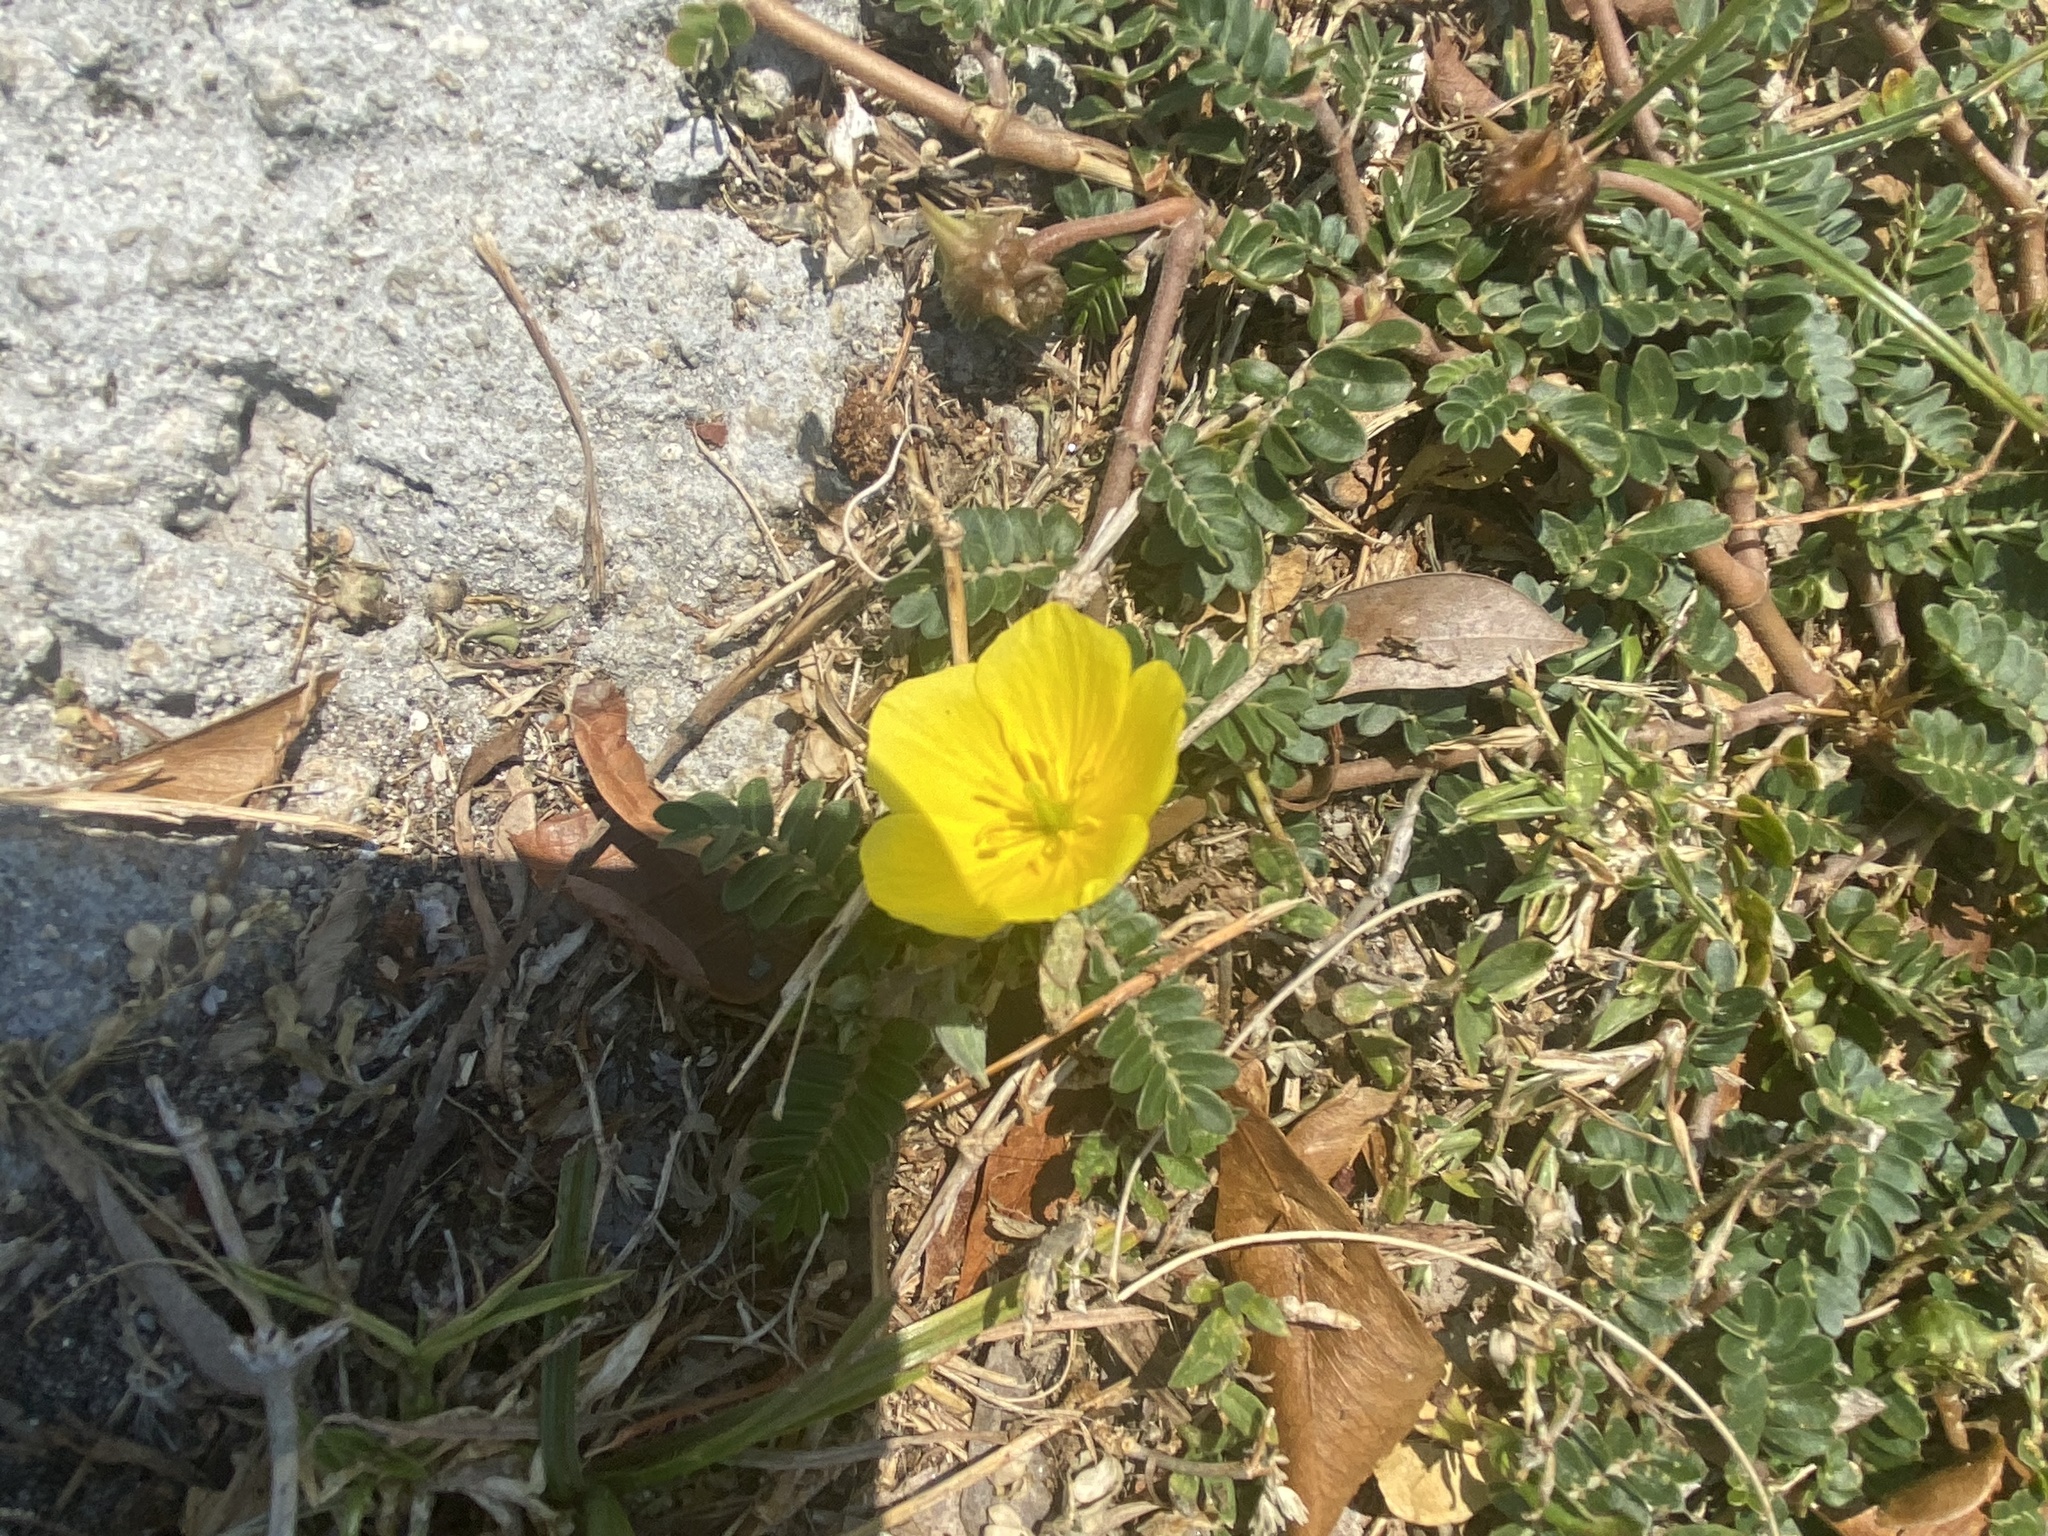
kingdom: Plantae
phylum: Tracheophyta
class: Magnoliopsida
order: Zygophyllales
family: Zygophyllaceae
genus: Tribulus
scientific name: Tribulus cistoides
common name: Jamaican feverplant
